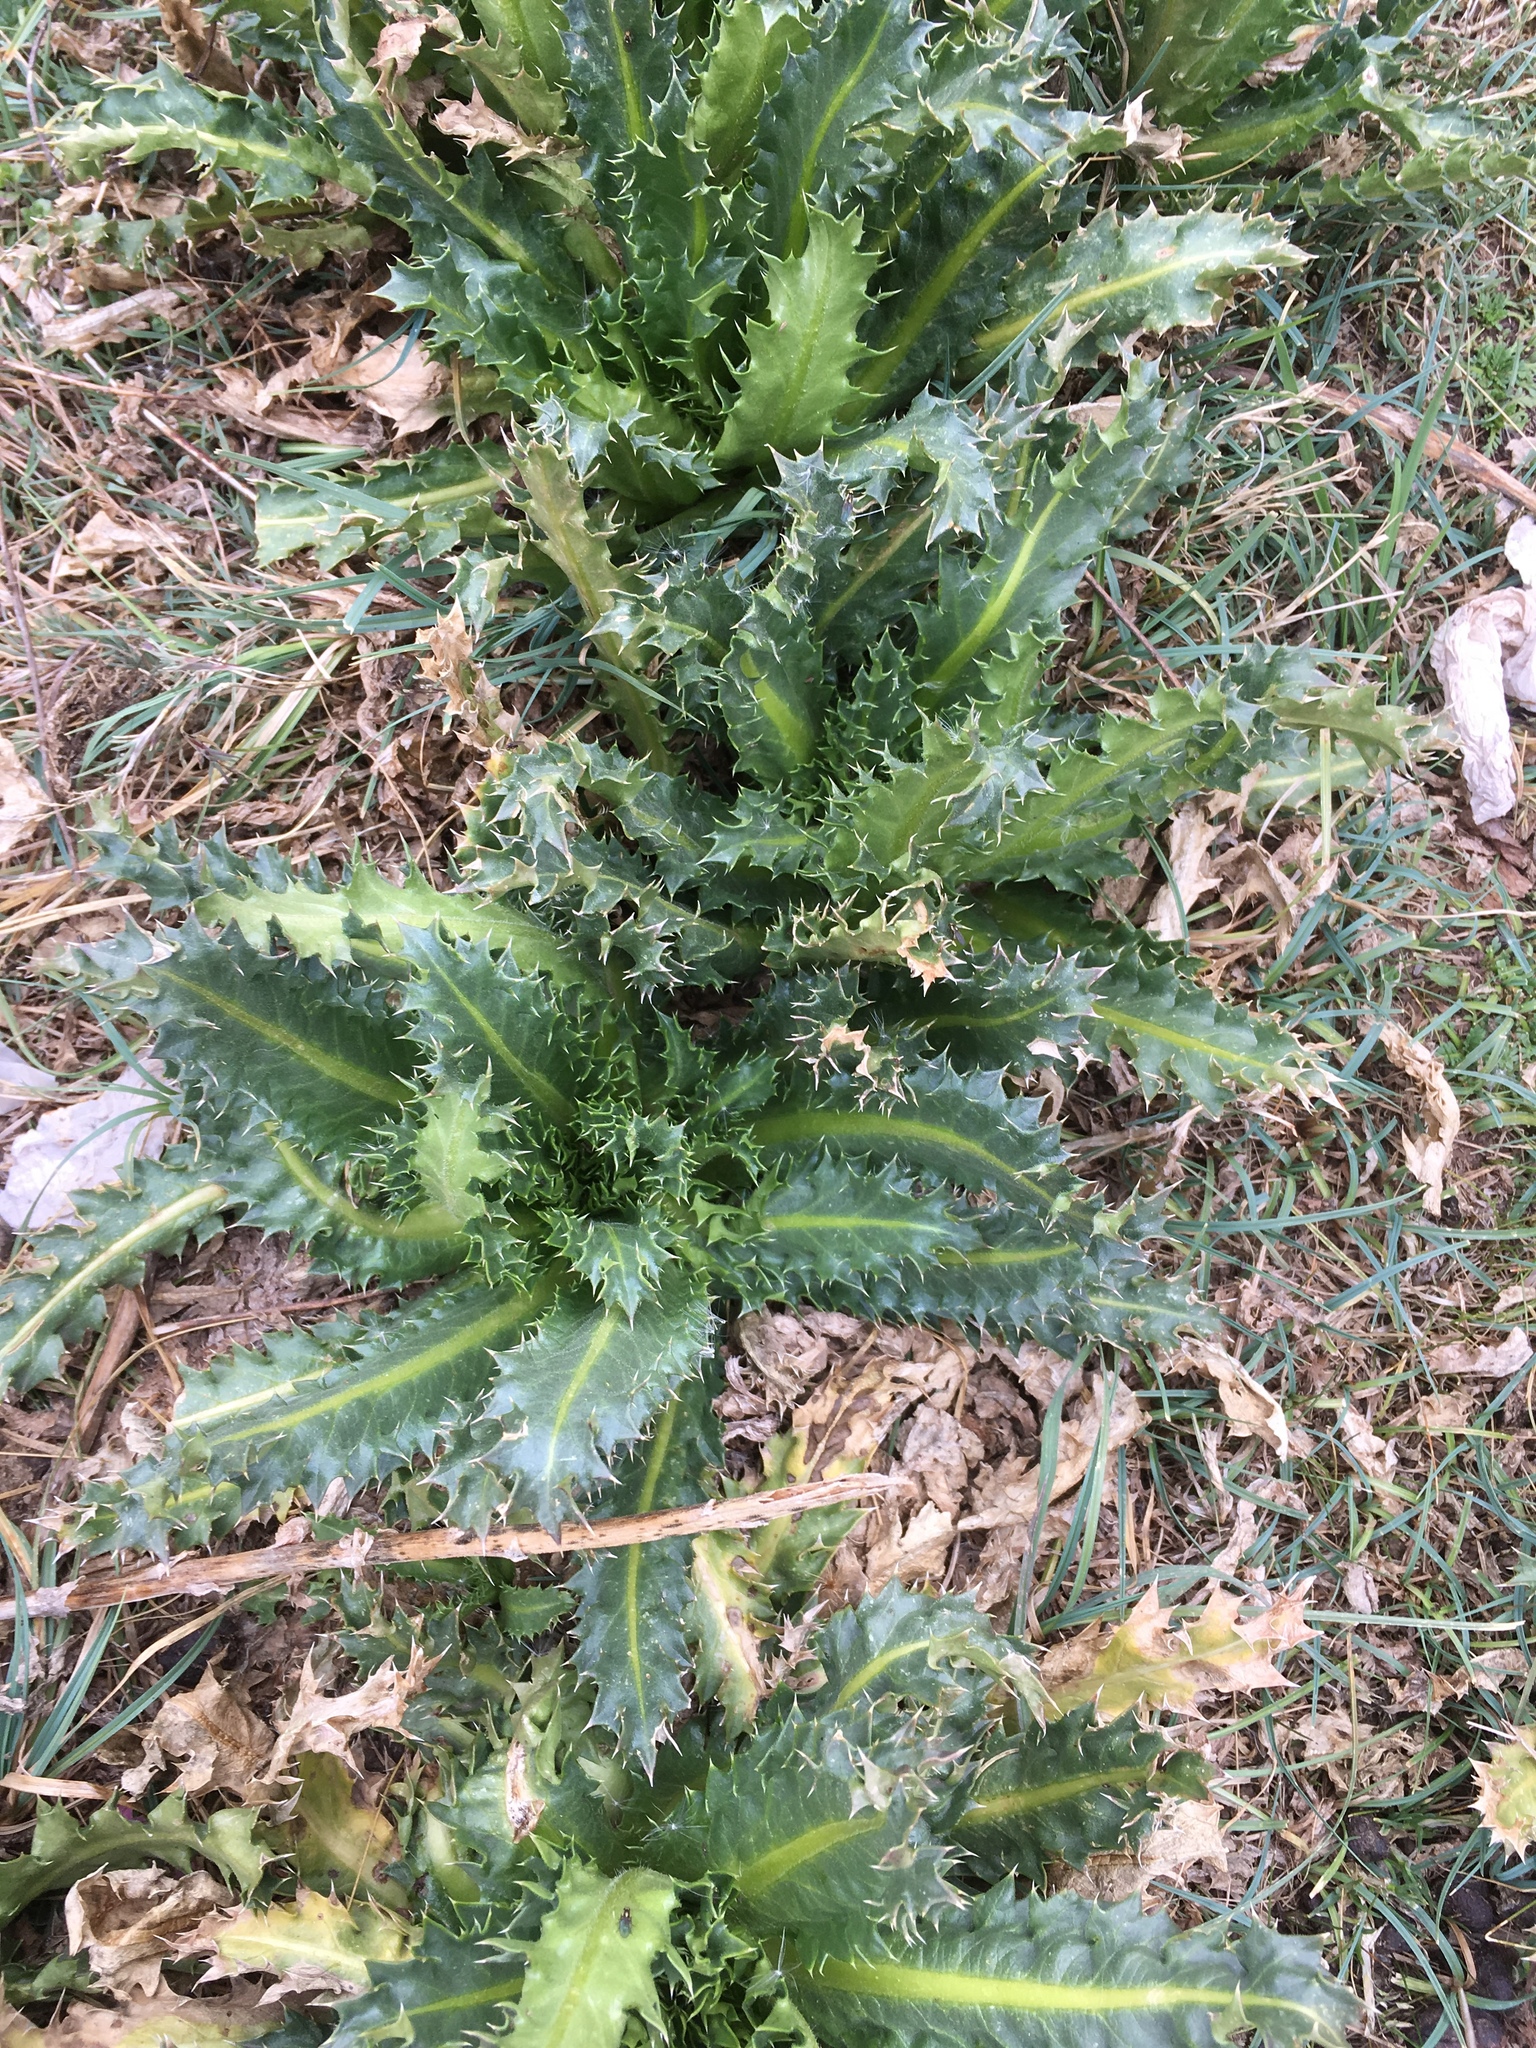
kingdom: Plantae
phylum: Tracheophyta
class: Magnoliopsida
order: Asterales
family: Asteraceae
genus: Perezia
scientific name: Perezia multiflora
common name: Perezia
